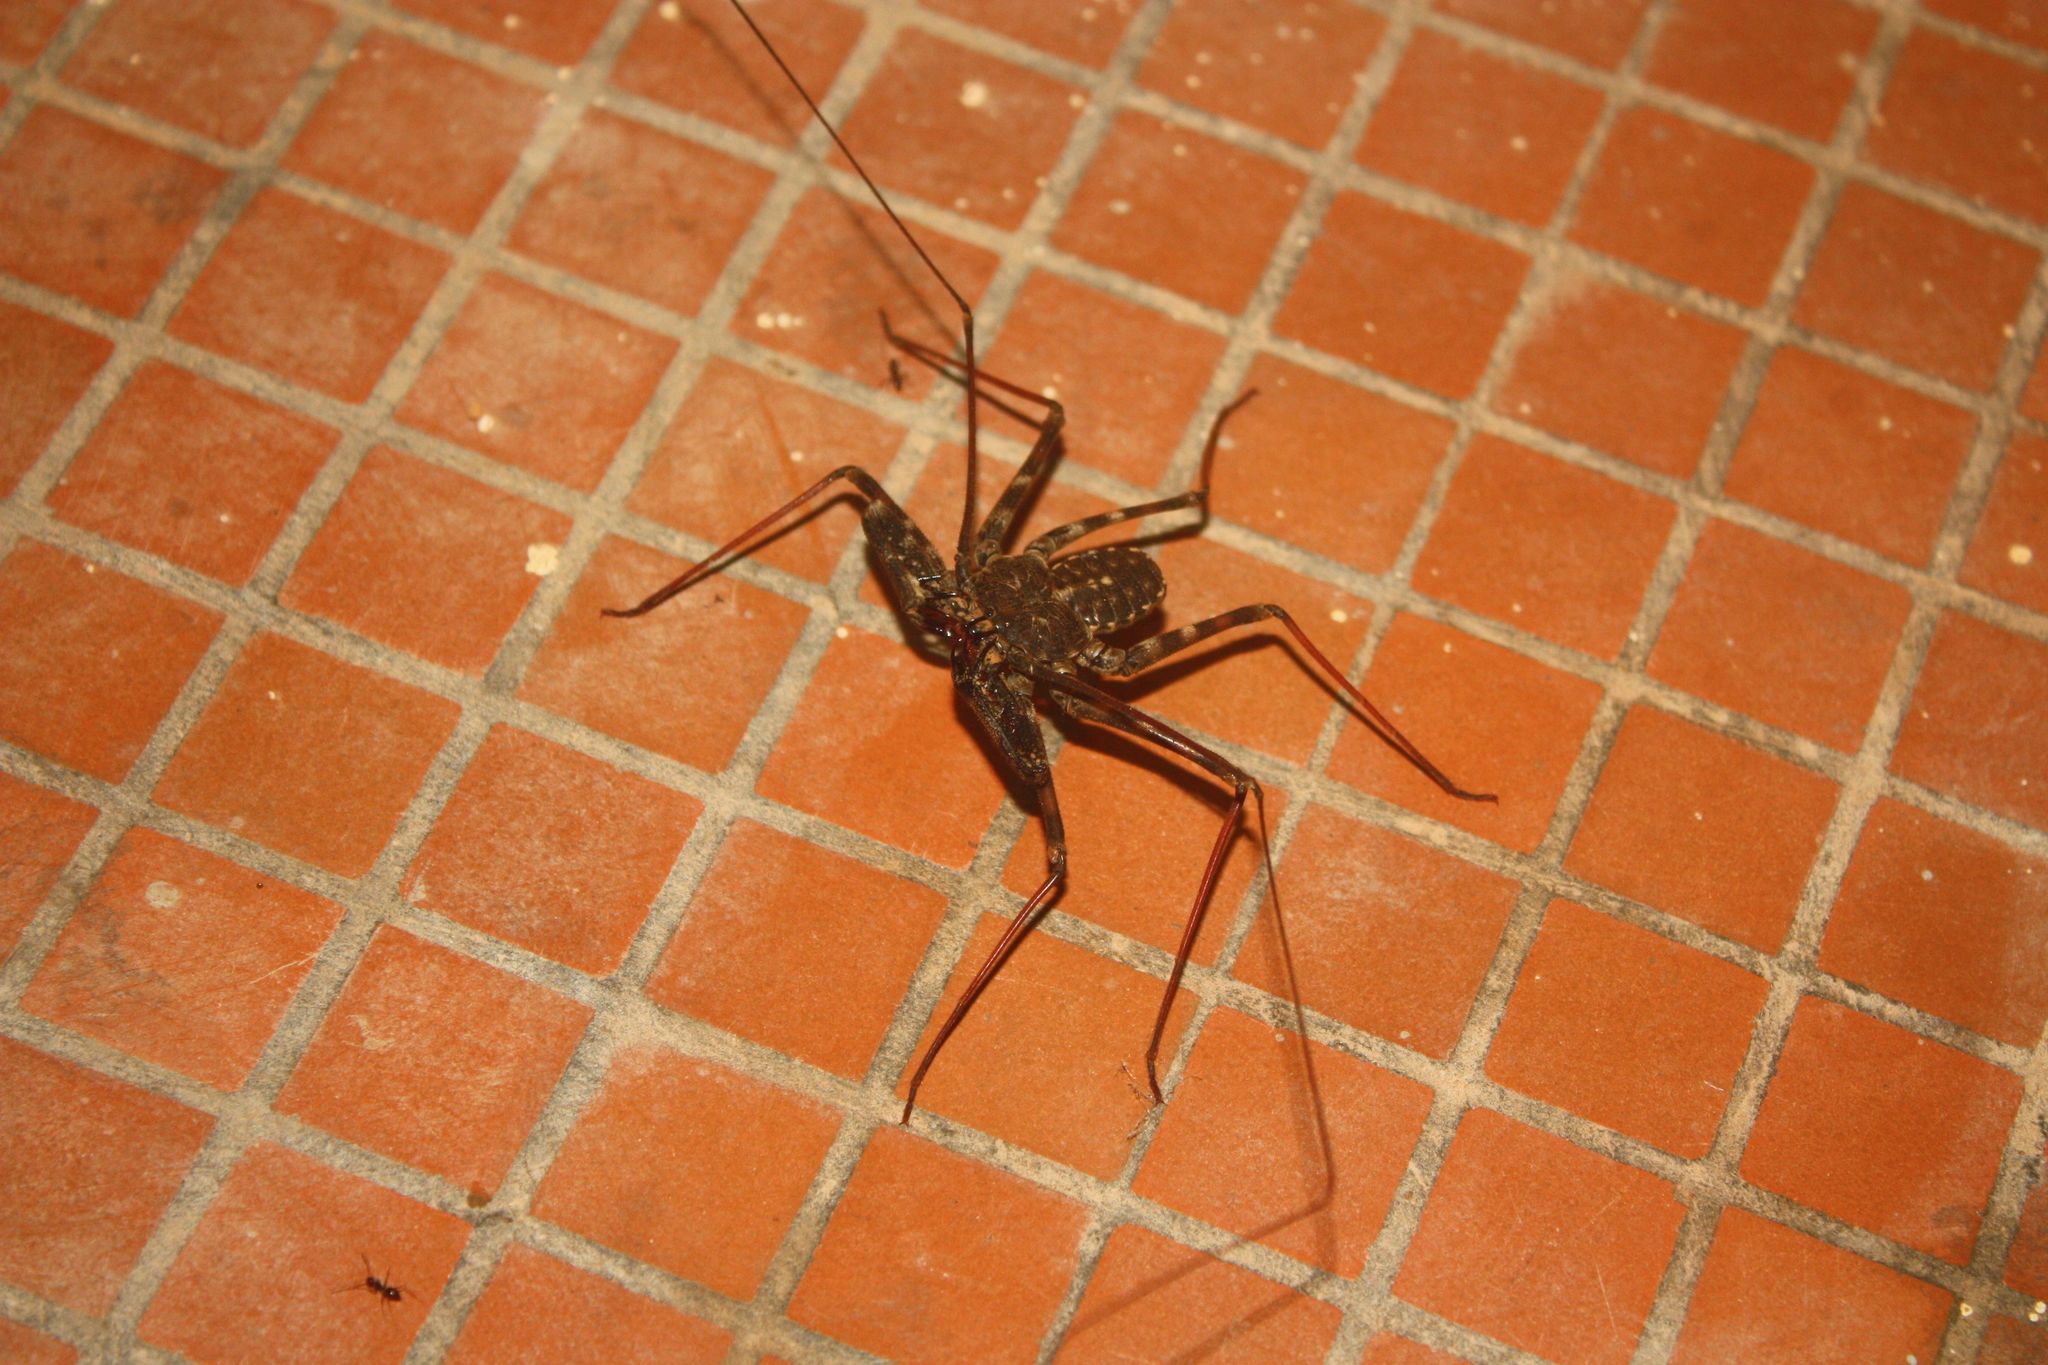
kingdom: Animalia
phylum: Arthropoda
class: Arachnida
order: Amblypygi
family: Phrynichidae
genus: Damon
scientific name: Damon medius
